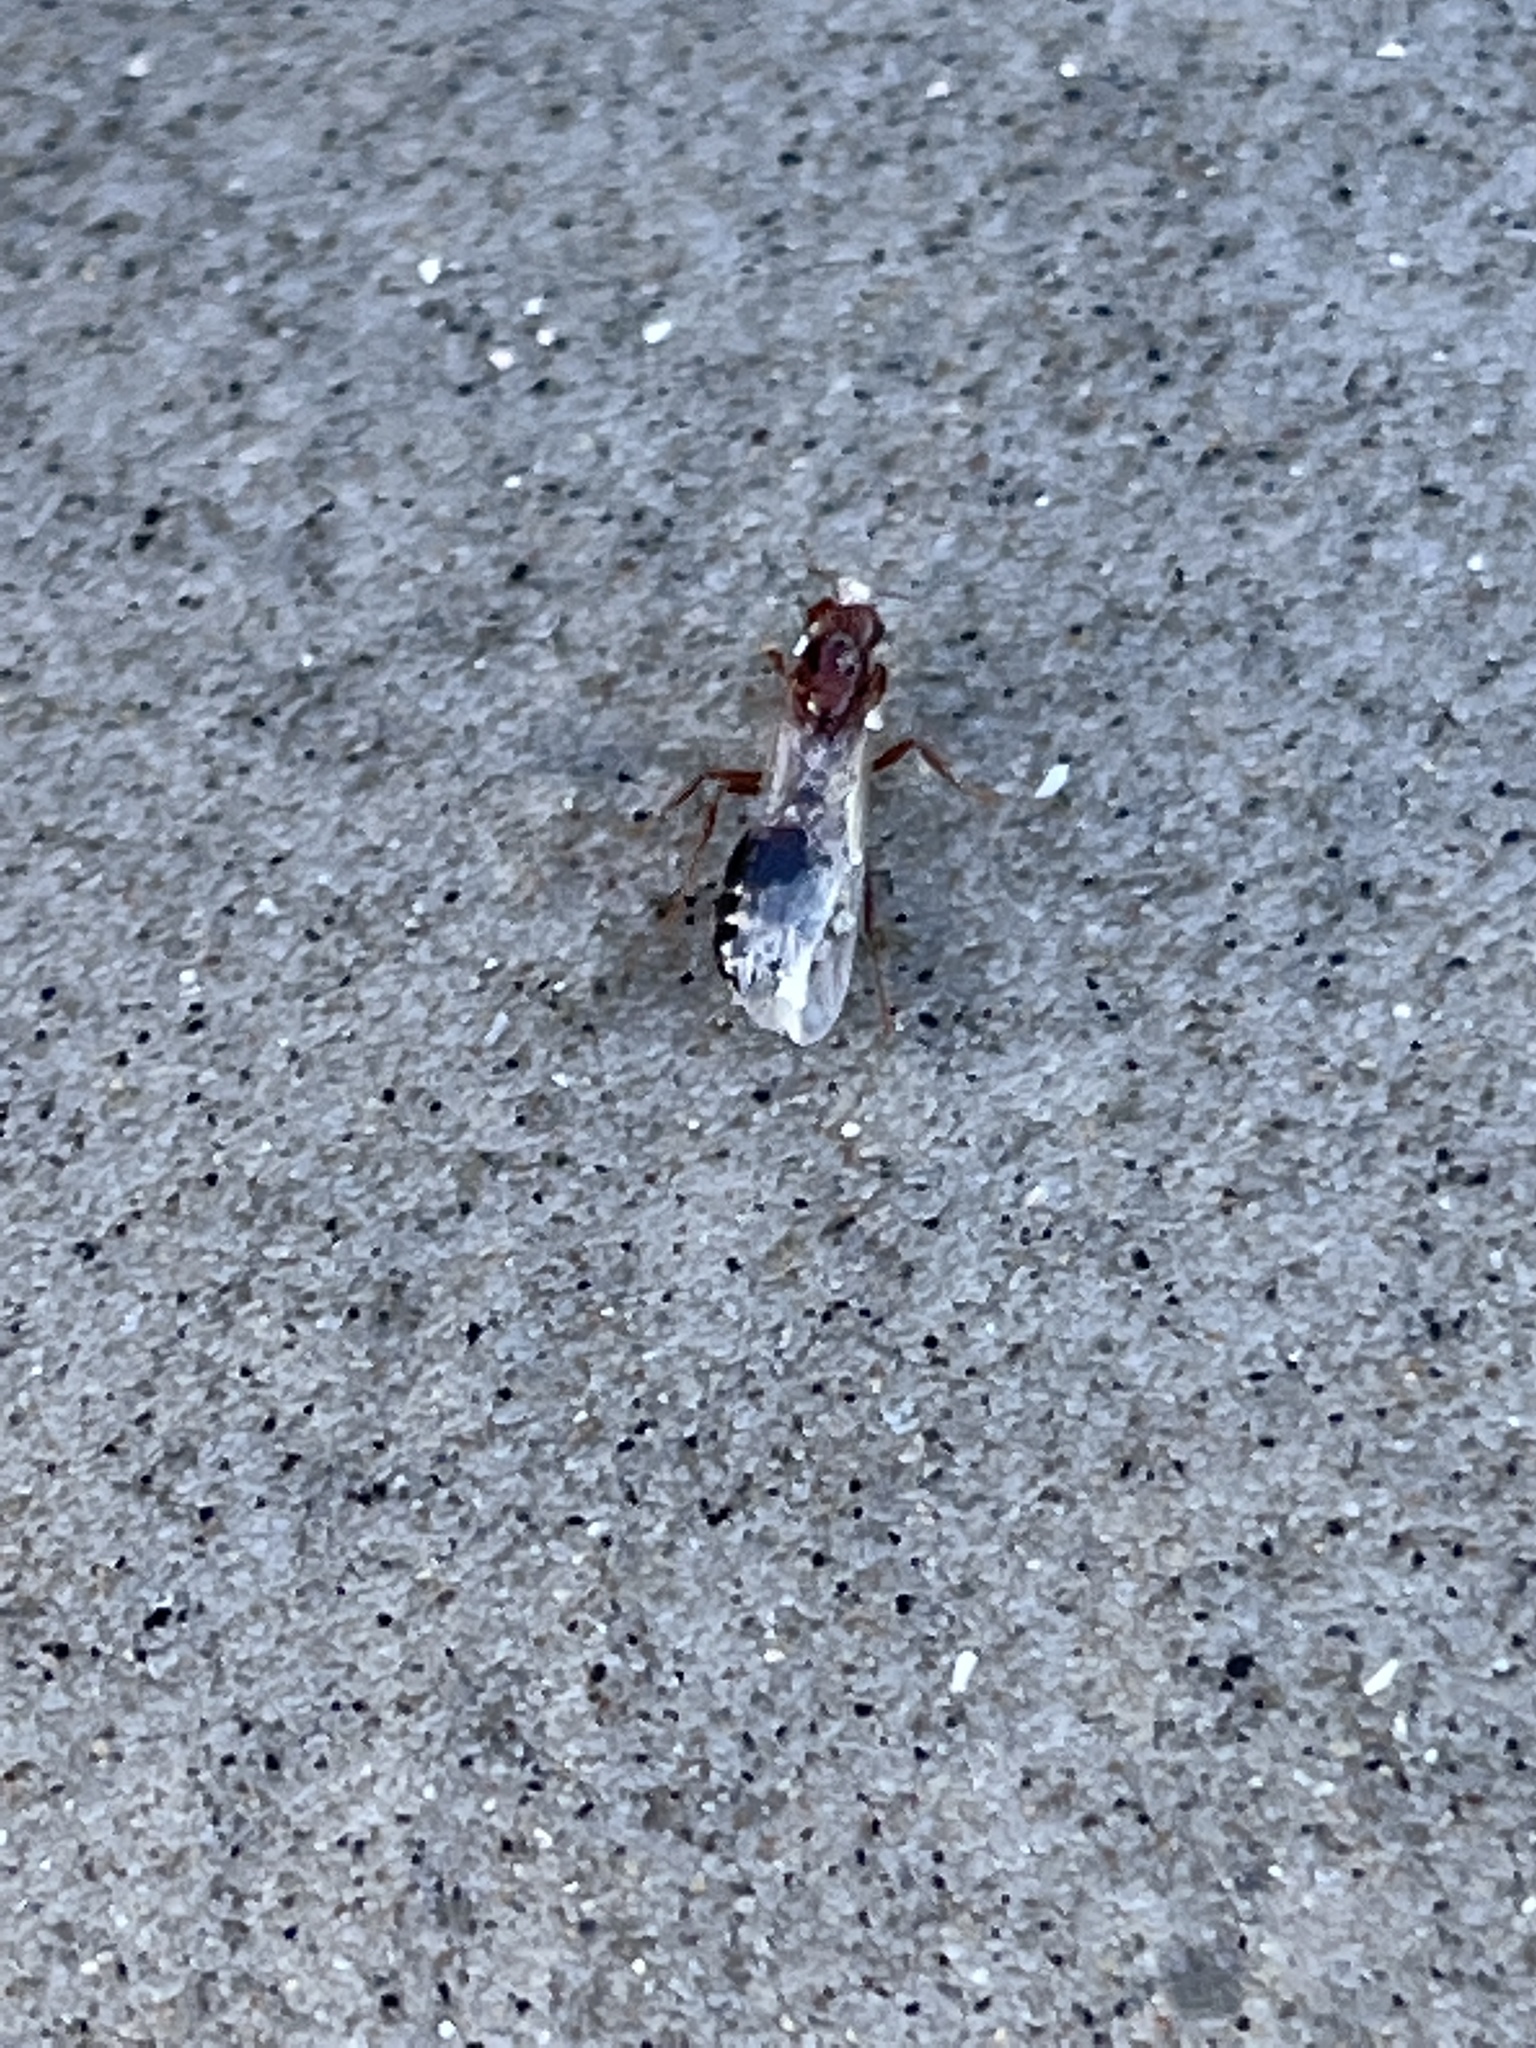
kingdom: Animalia
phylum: Arthropoda
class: Insecta
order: Hymenoptera
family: Formicidae
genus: Solenopsis
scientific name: Solenopsis invicta
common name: Red imported fire ant
